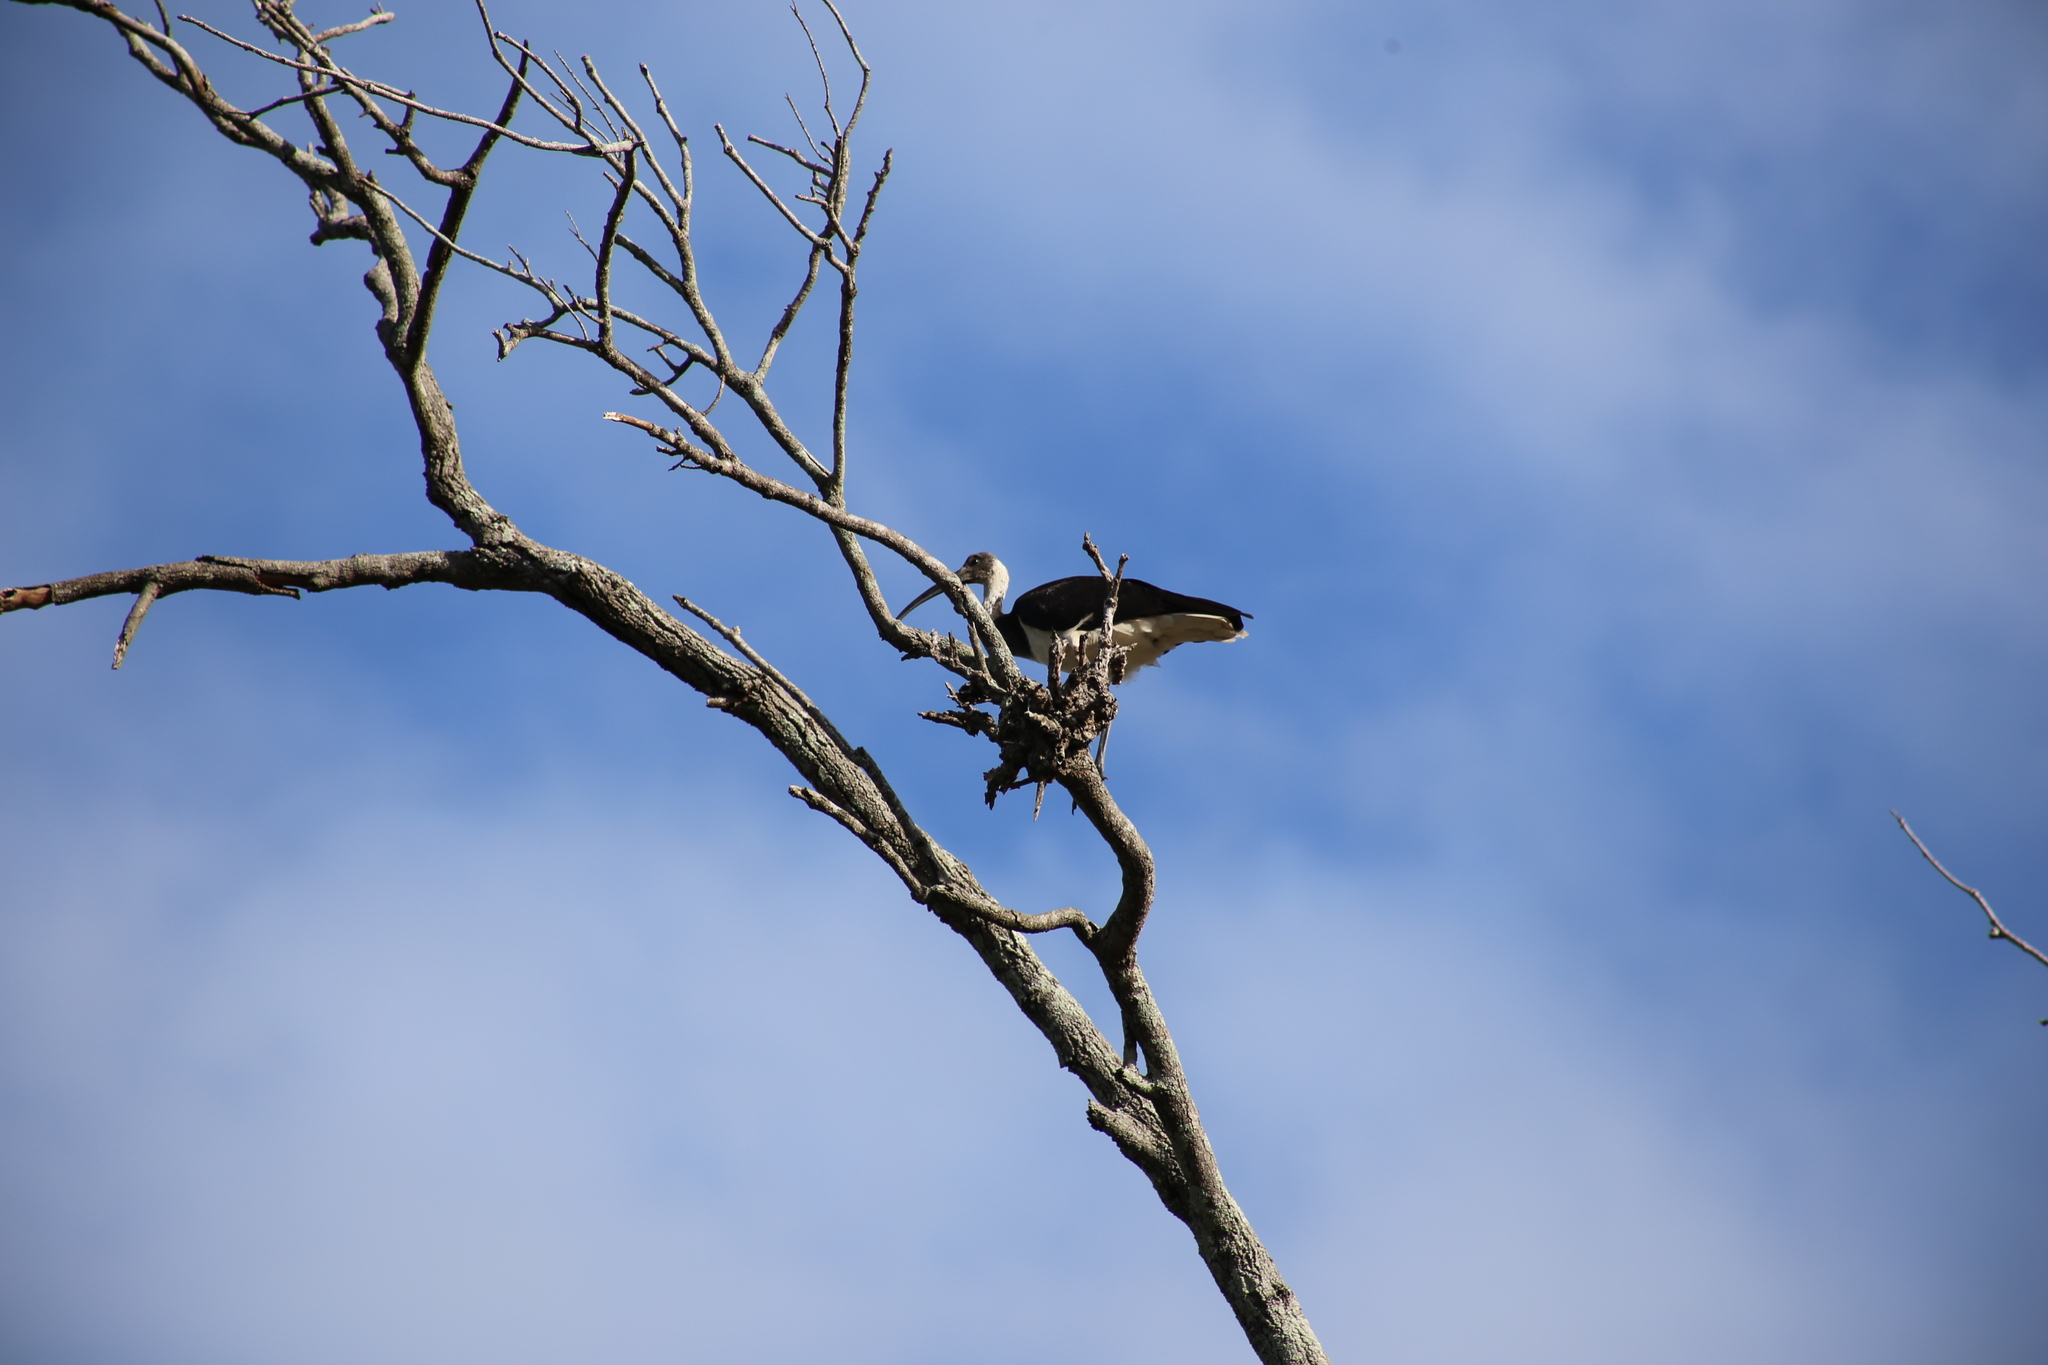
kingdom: Animalia
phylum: Chordata
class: Aves
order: Pelecaniformes
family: Threskiornithidae
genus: Threskiornis
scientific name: Threskiornis spinicollis
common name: Straw-necked ibis
